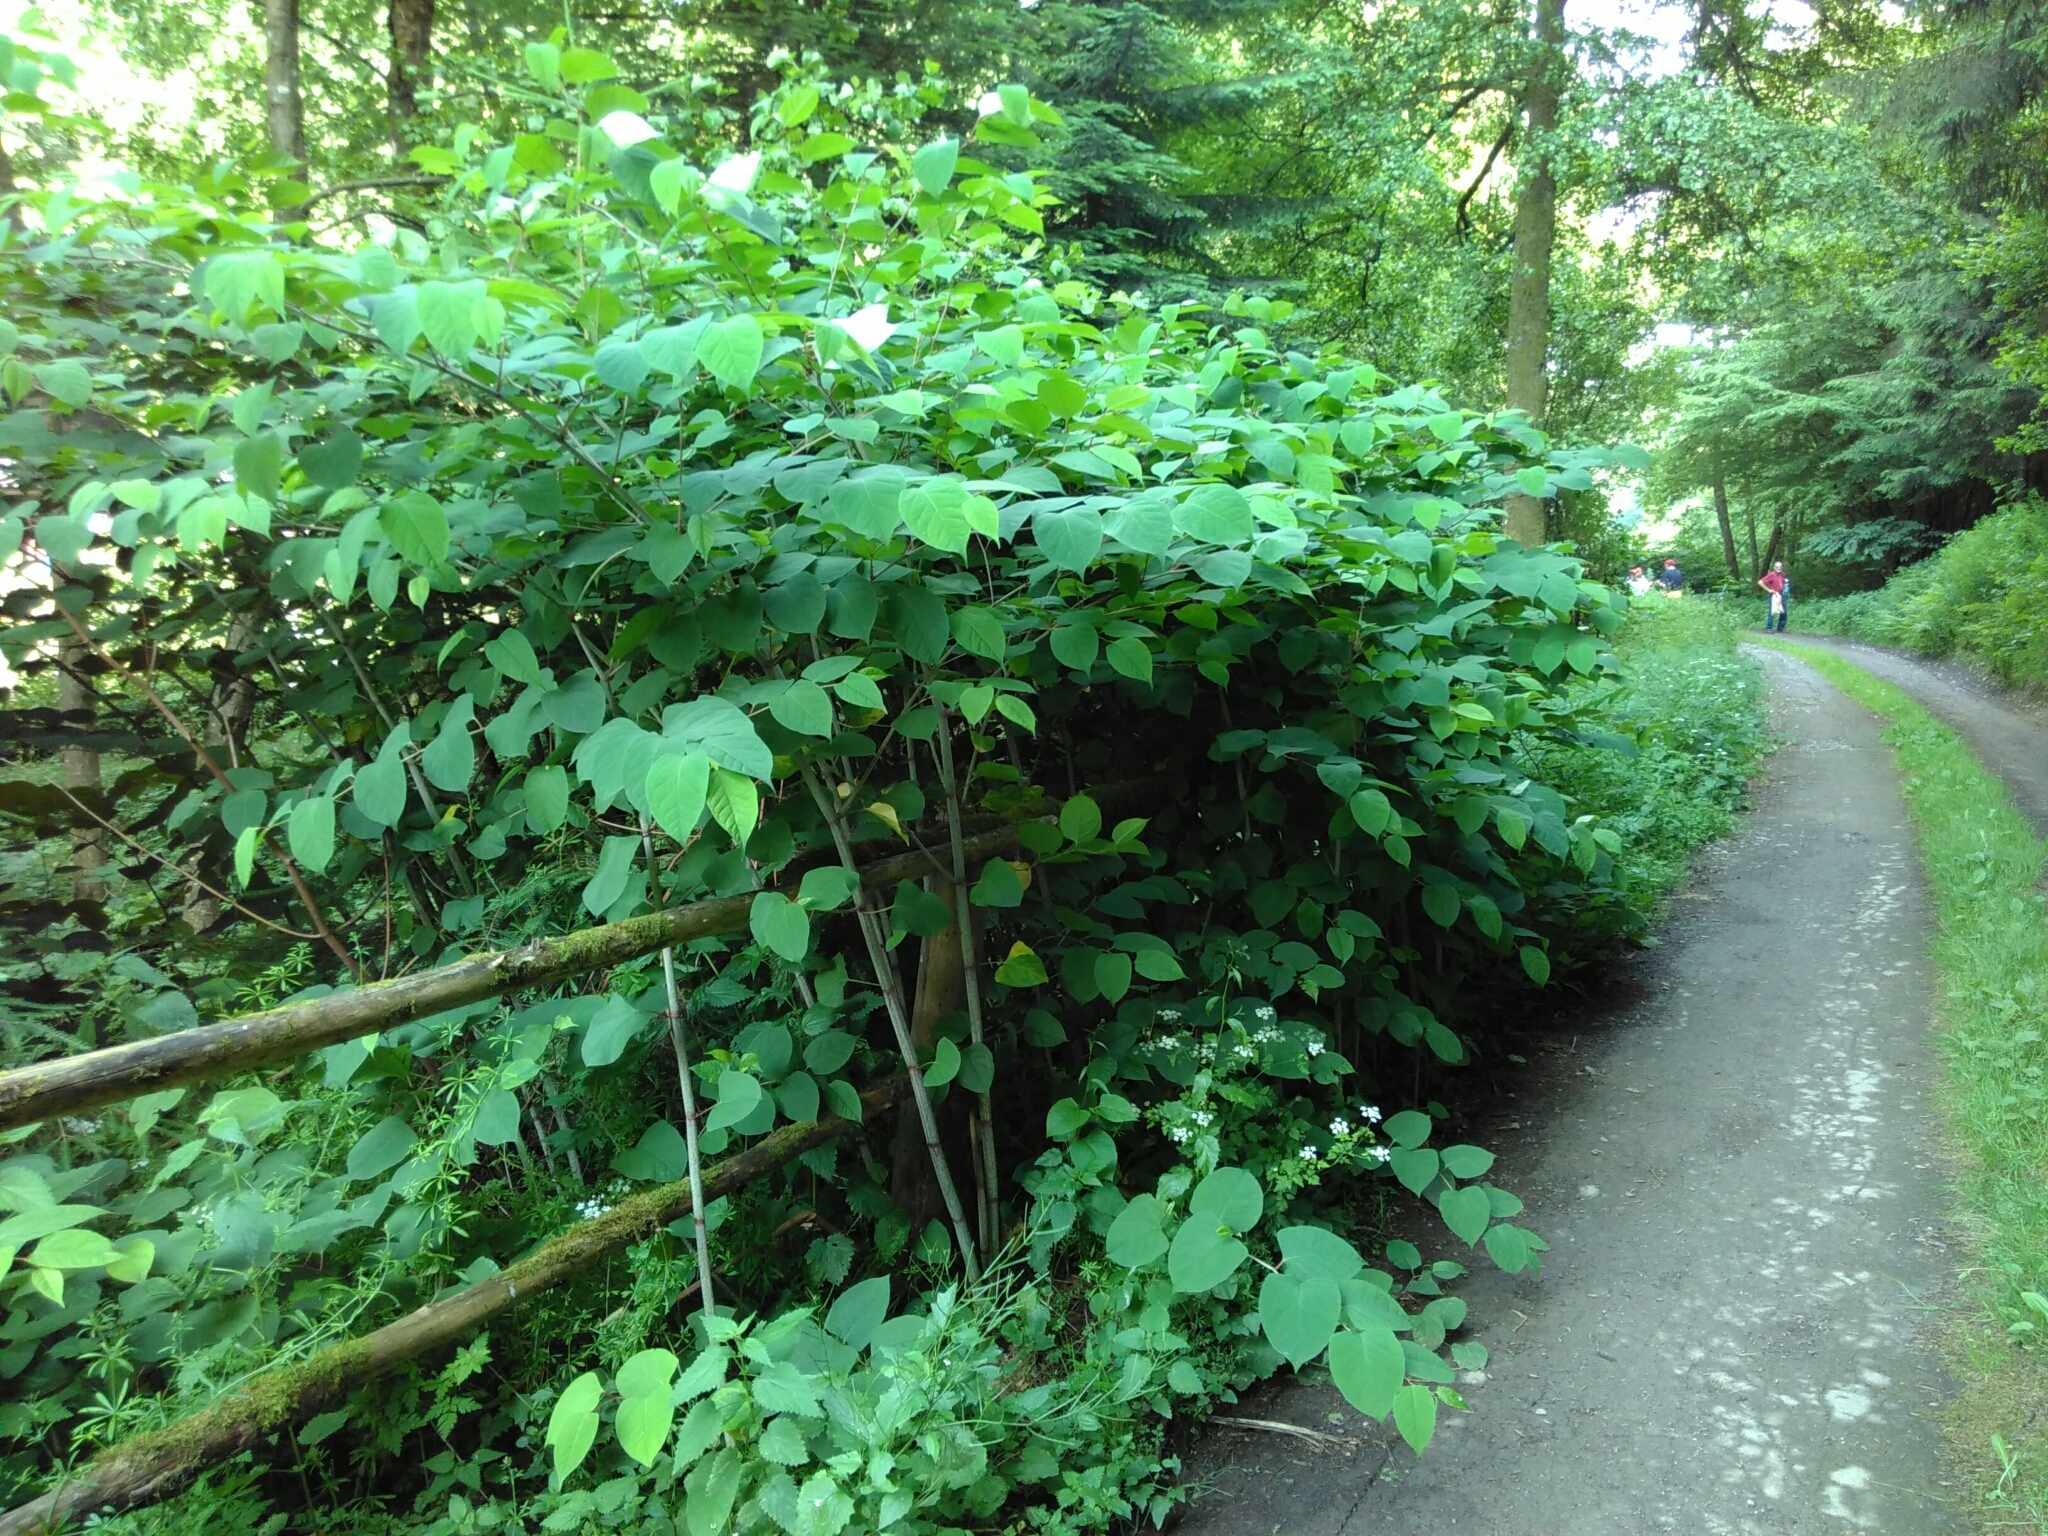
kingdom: Plantae
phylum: Tracheophyta
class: Magnoliopsida
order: Caryophyllales
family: Polygonaceae
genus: Reynoutria
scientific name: Reynoutria japonica
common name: Japanese knotweed
